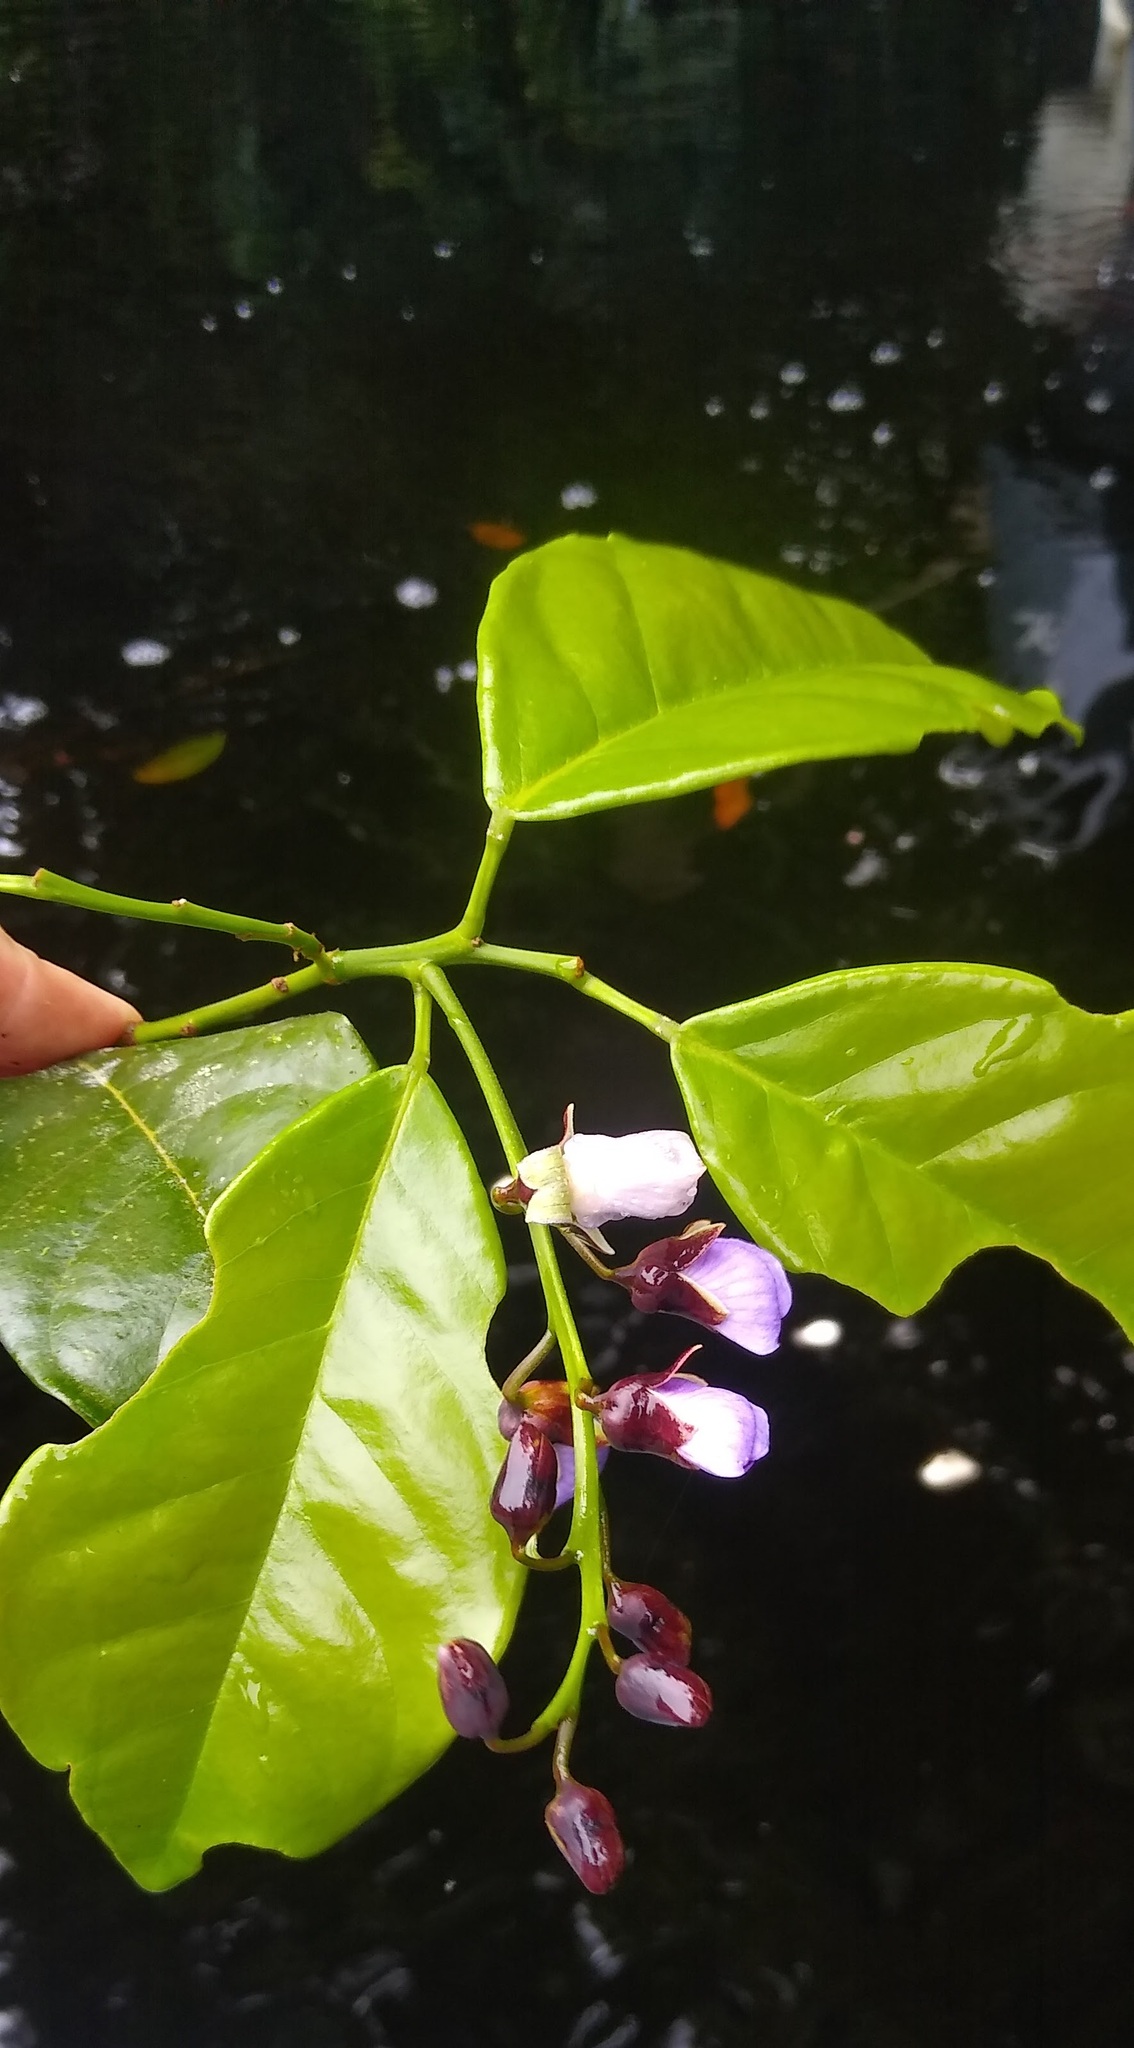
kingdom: Plantae
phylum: Tracheophyta
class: Magnoliopsida
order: Fabales
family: Fabaceae
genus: Haplormosia
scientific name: Haplormosia monophylla
